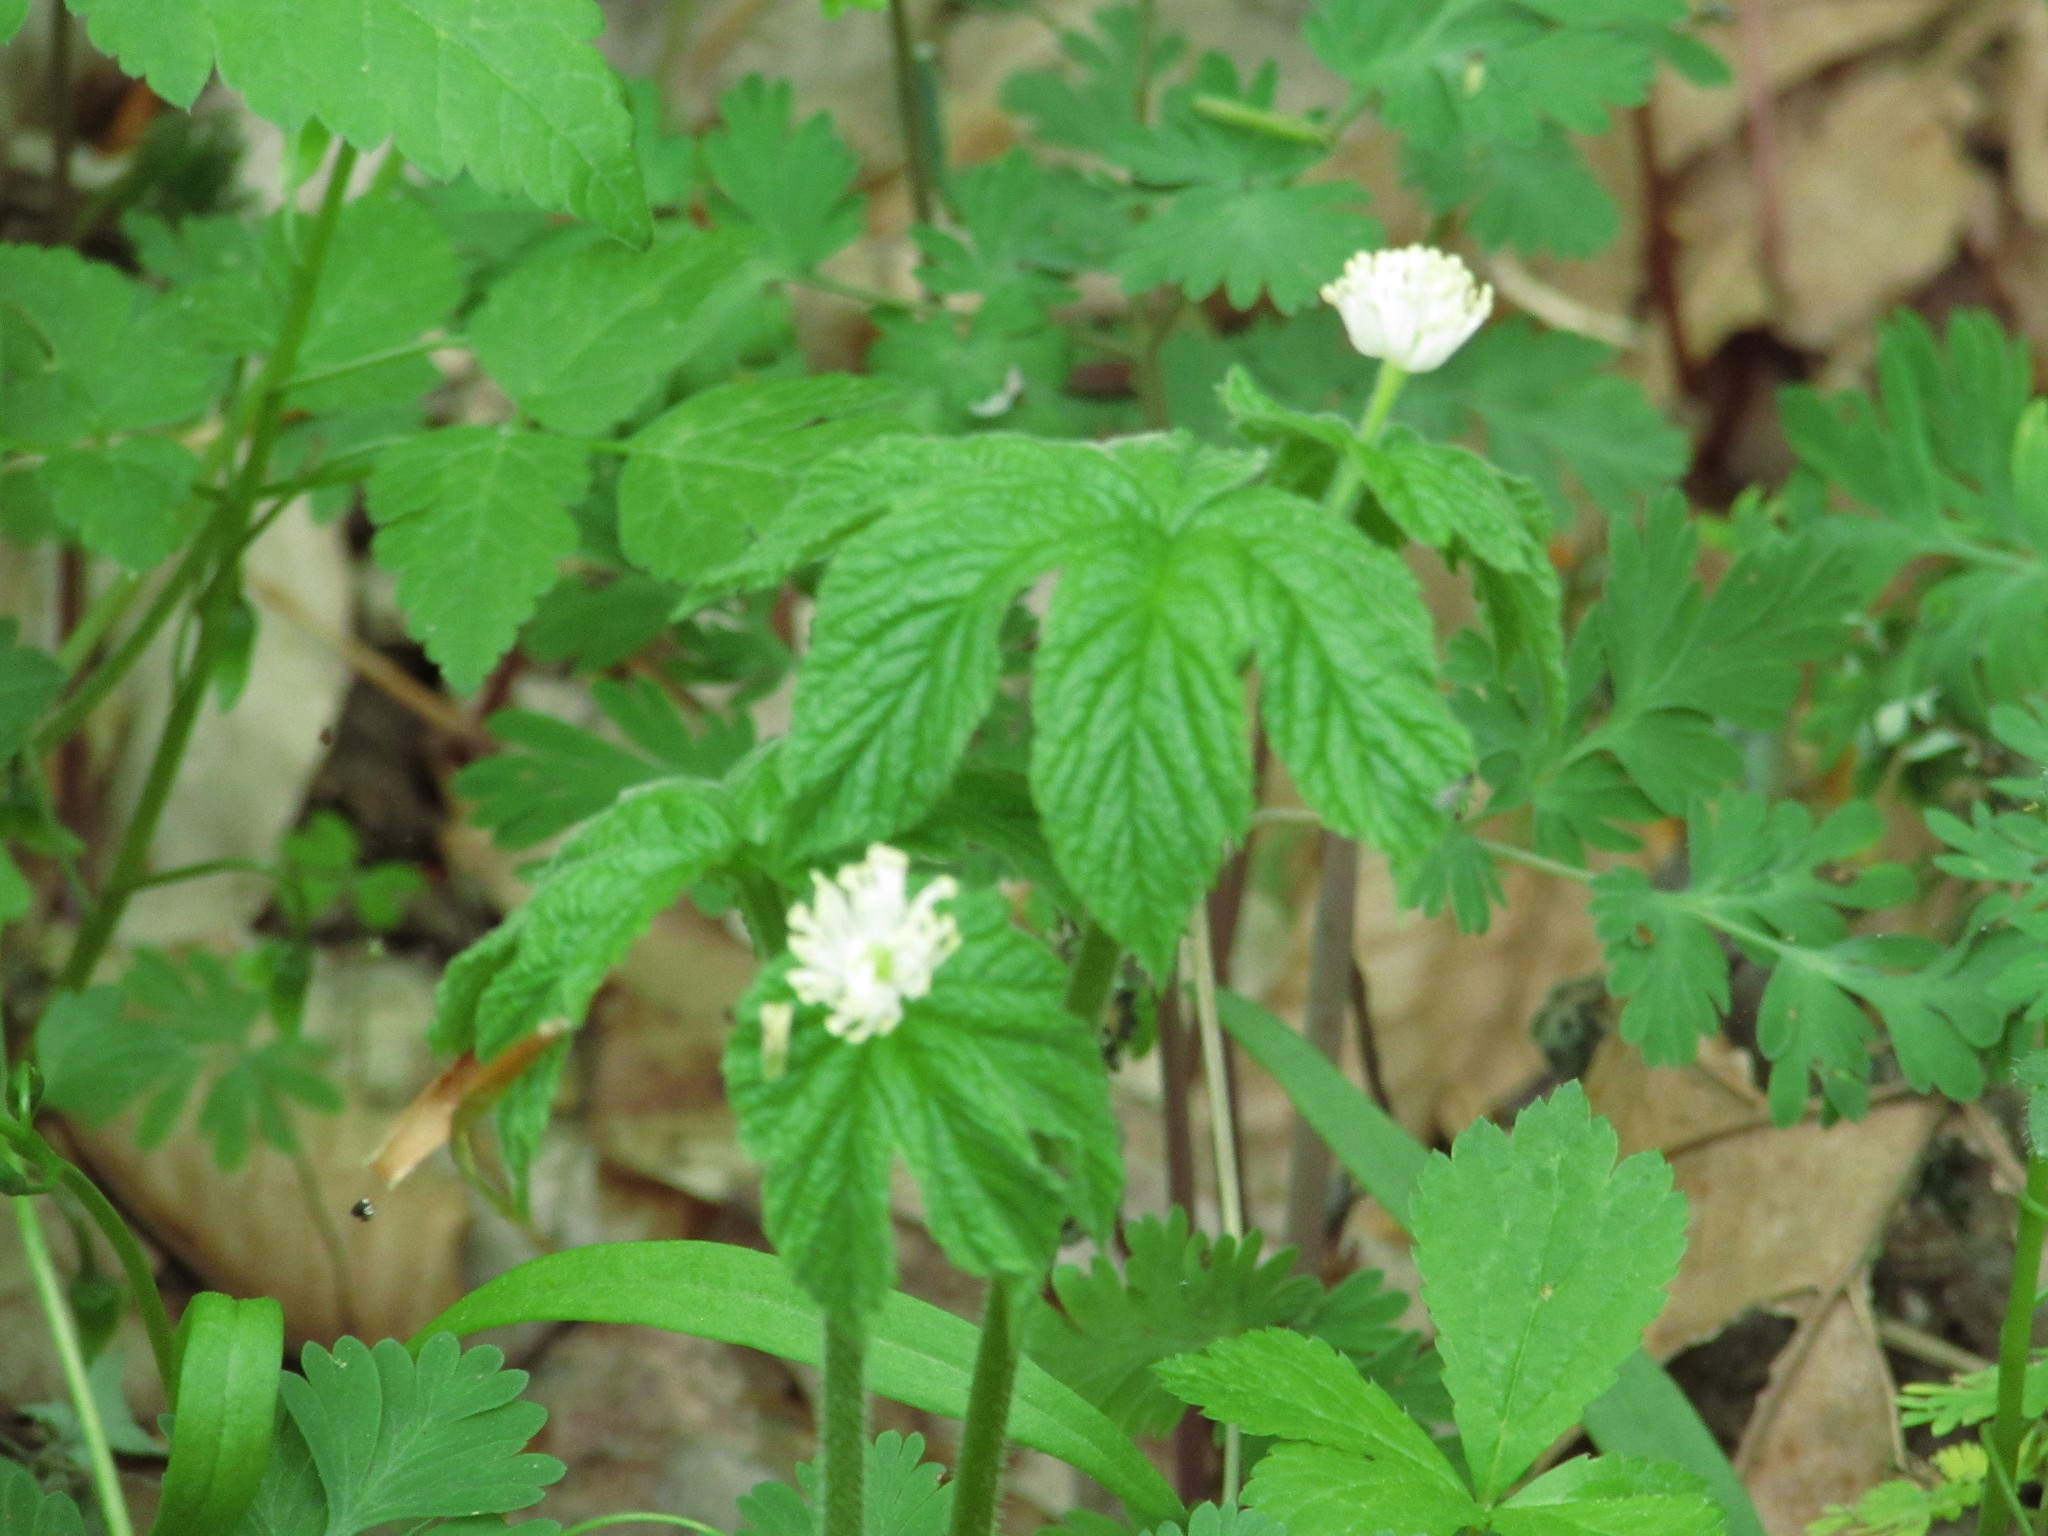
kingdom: Plantae
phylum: Tracheophyta
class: Magnoliopsida
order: Ranunculales
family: Ranunculaceae
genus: Hydrastis
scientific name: Hydrastis canadensis
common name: Goldenseal
